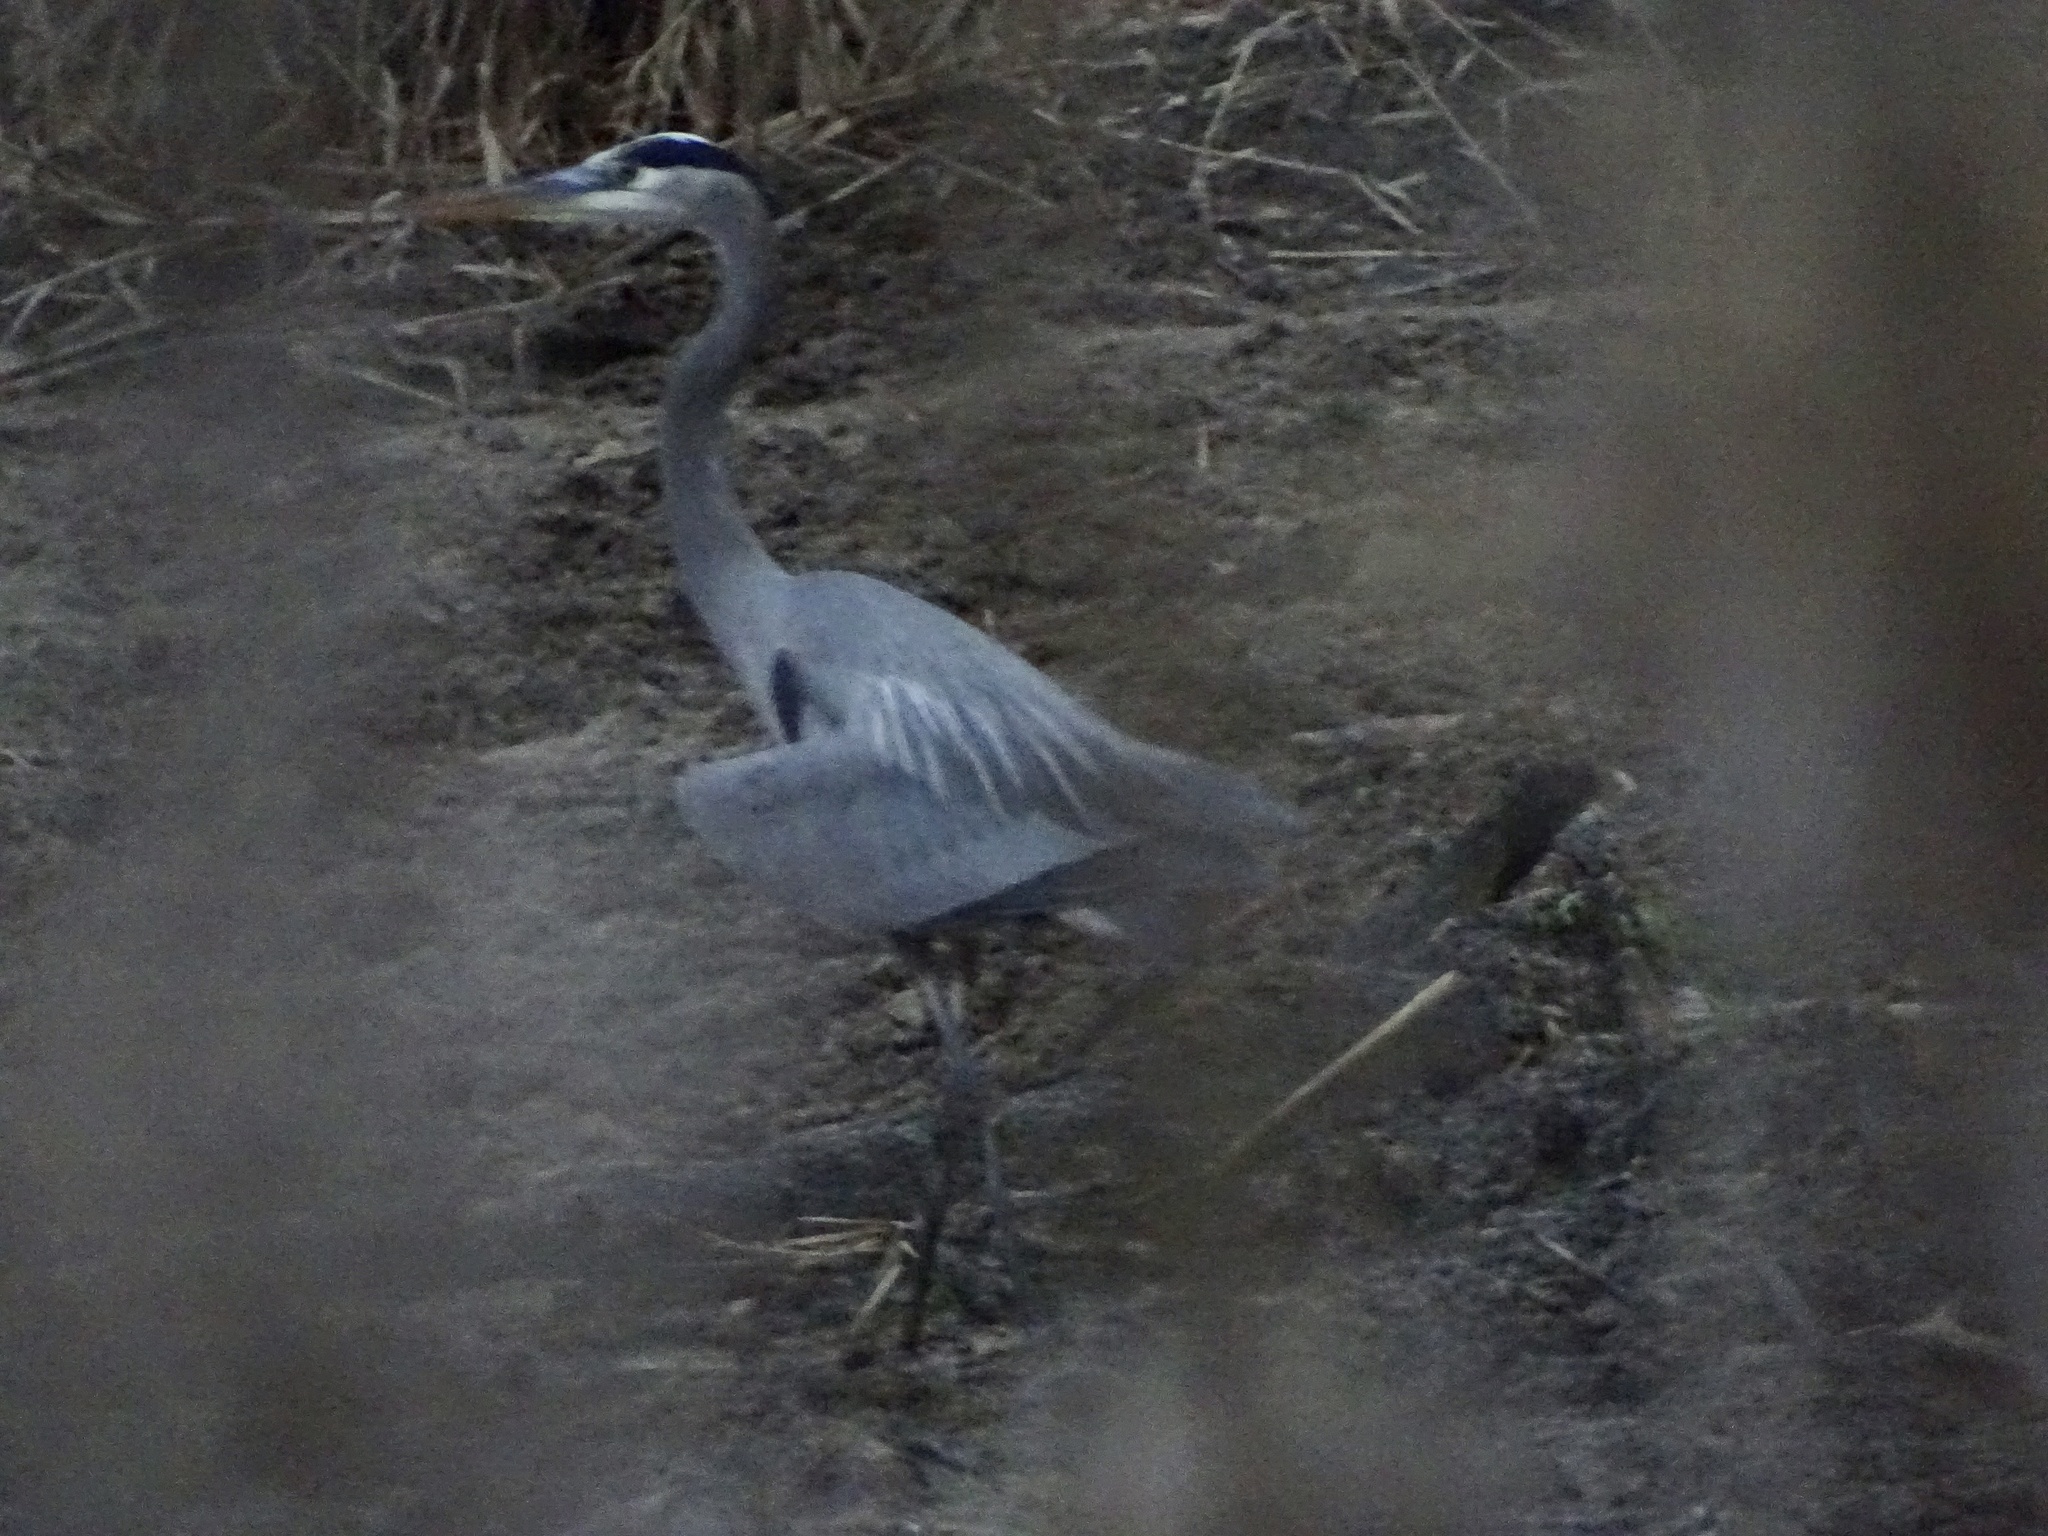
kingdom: Animalia
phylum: Chordata
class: Aves
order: Pelecaniformes
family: Ardeidae
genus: Ardea
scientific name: Ardea herodias
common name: Great blue heron
